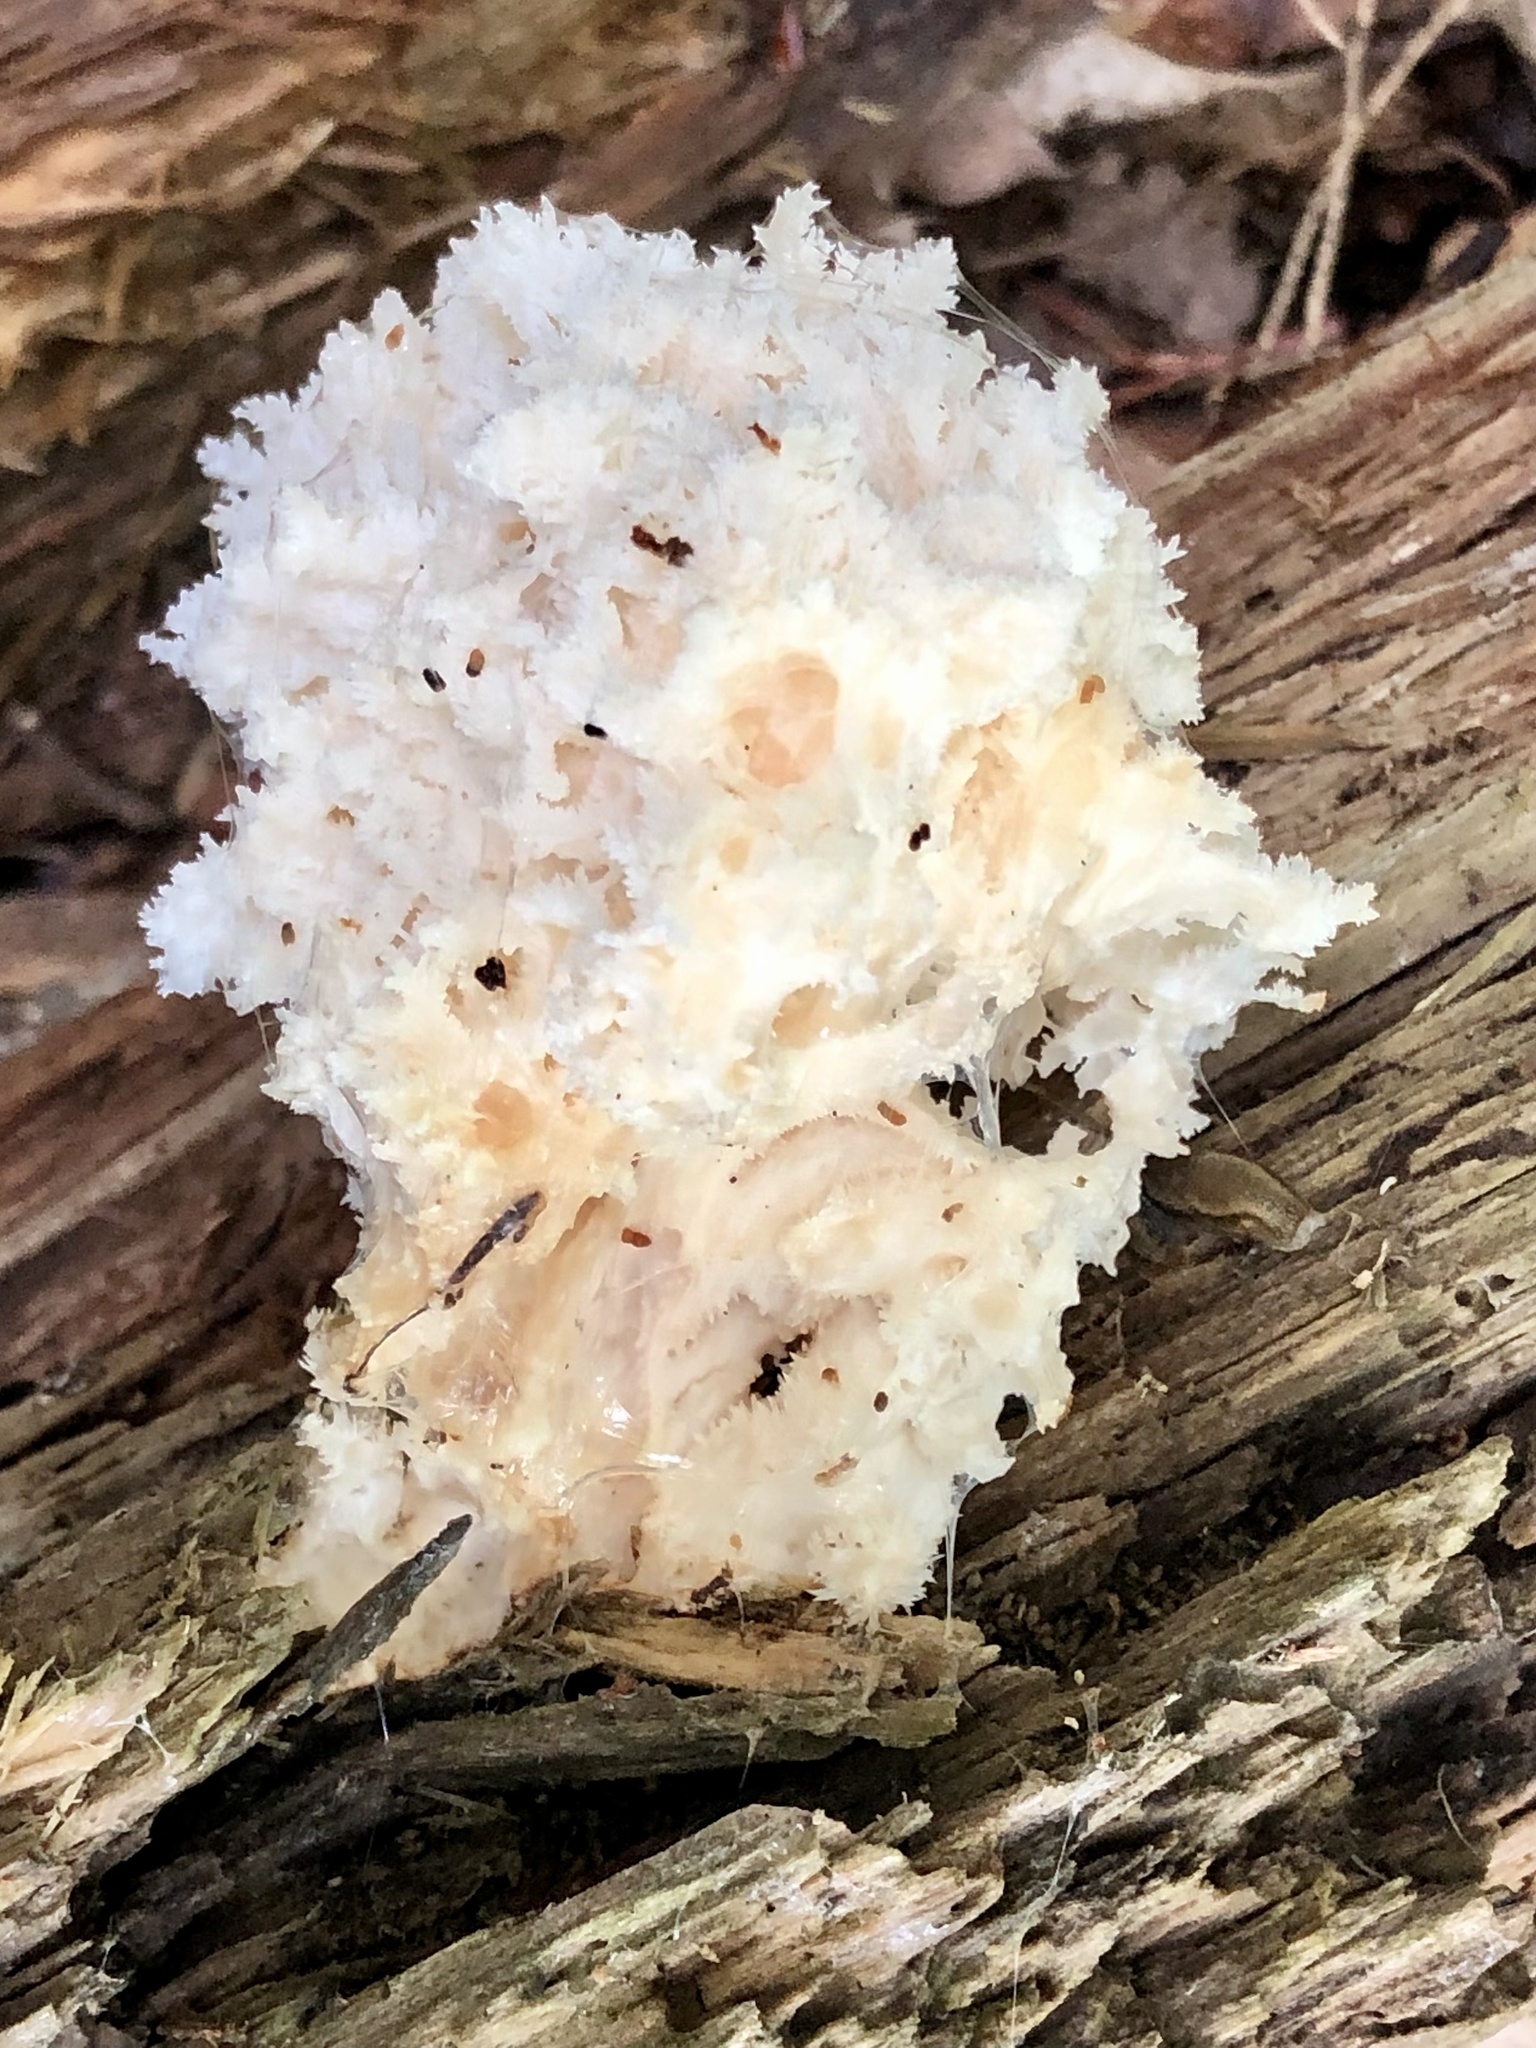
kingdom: Fungi
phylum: Basidiomycota
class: Agaricomycetes
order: Russulales
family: Hericiaceae
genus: Hericium
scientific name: Hericium coralloides
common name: Coral tooth
